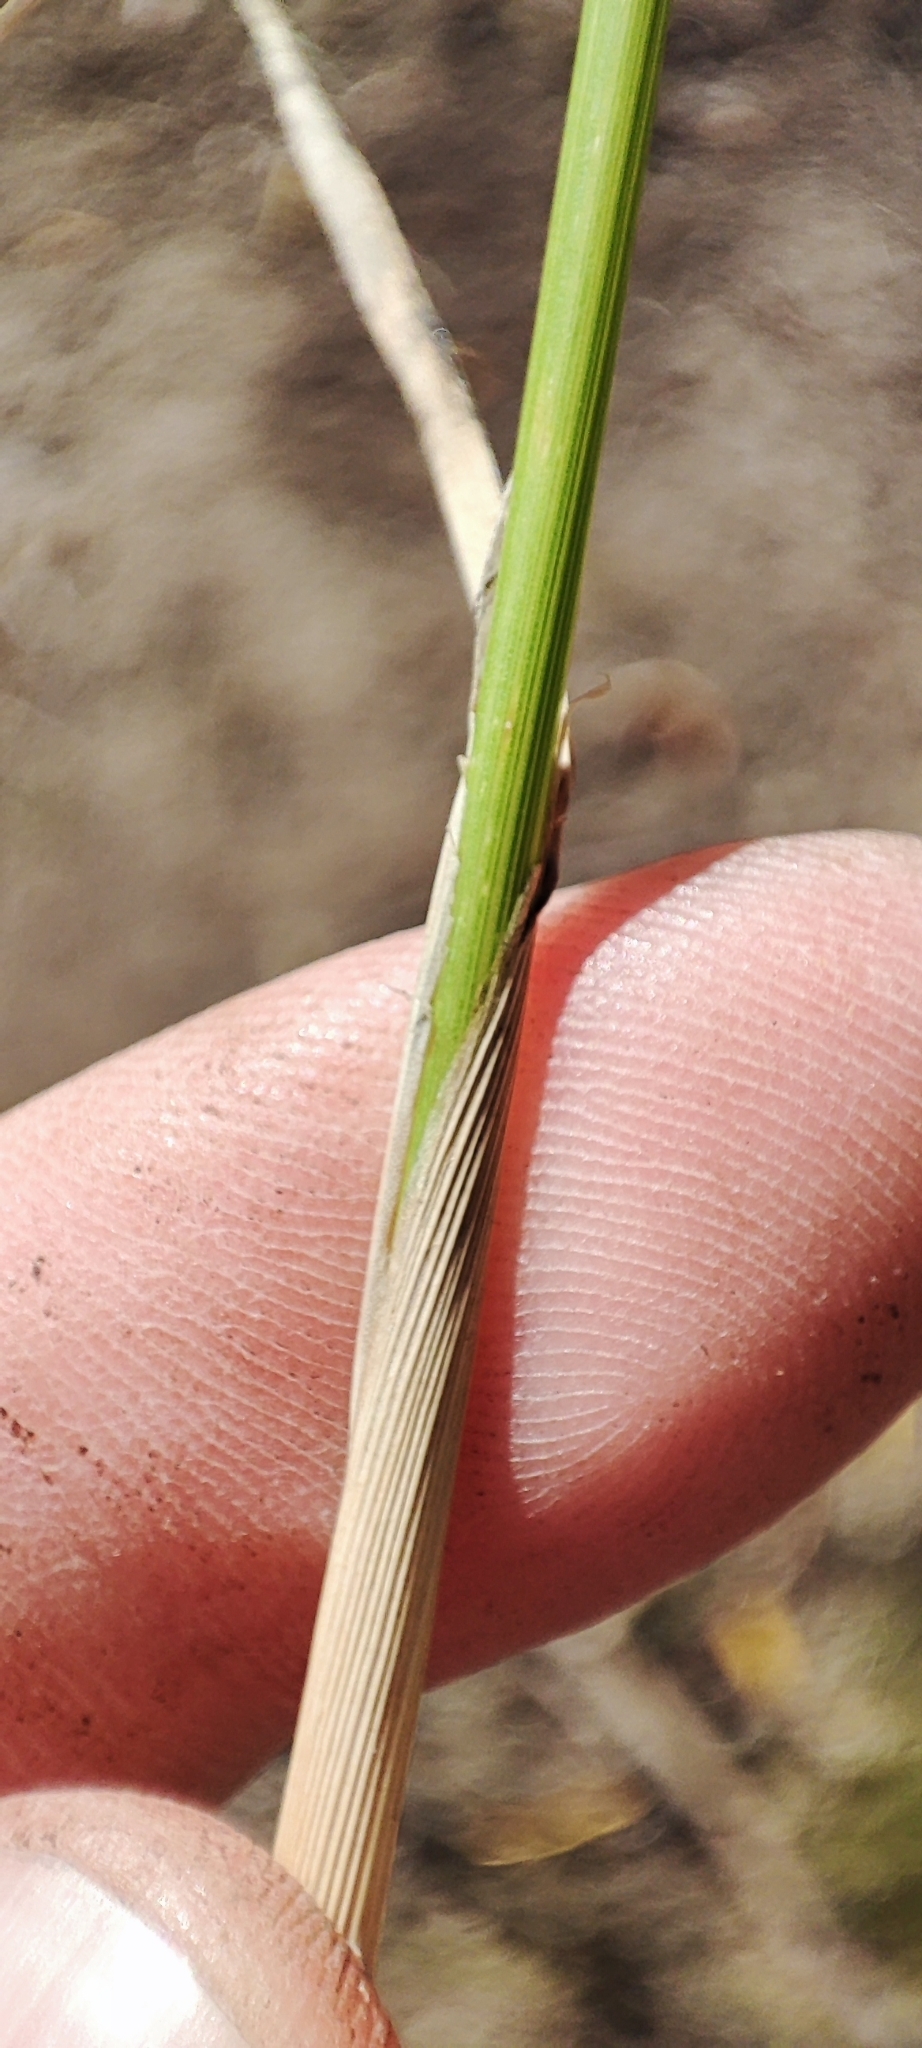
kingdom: Plantae
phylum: Tracheophyta
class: Liliopsida
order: Poales
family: Poaceae
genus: Calamagrostis
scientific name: Calamagrostis epigejos
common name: Wood small-reed
